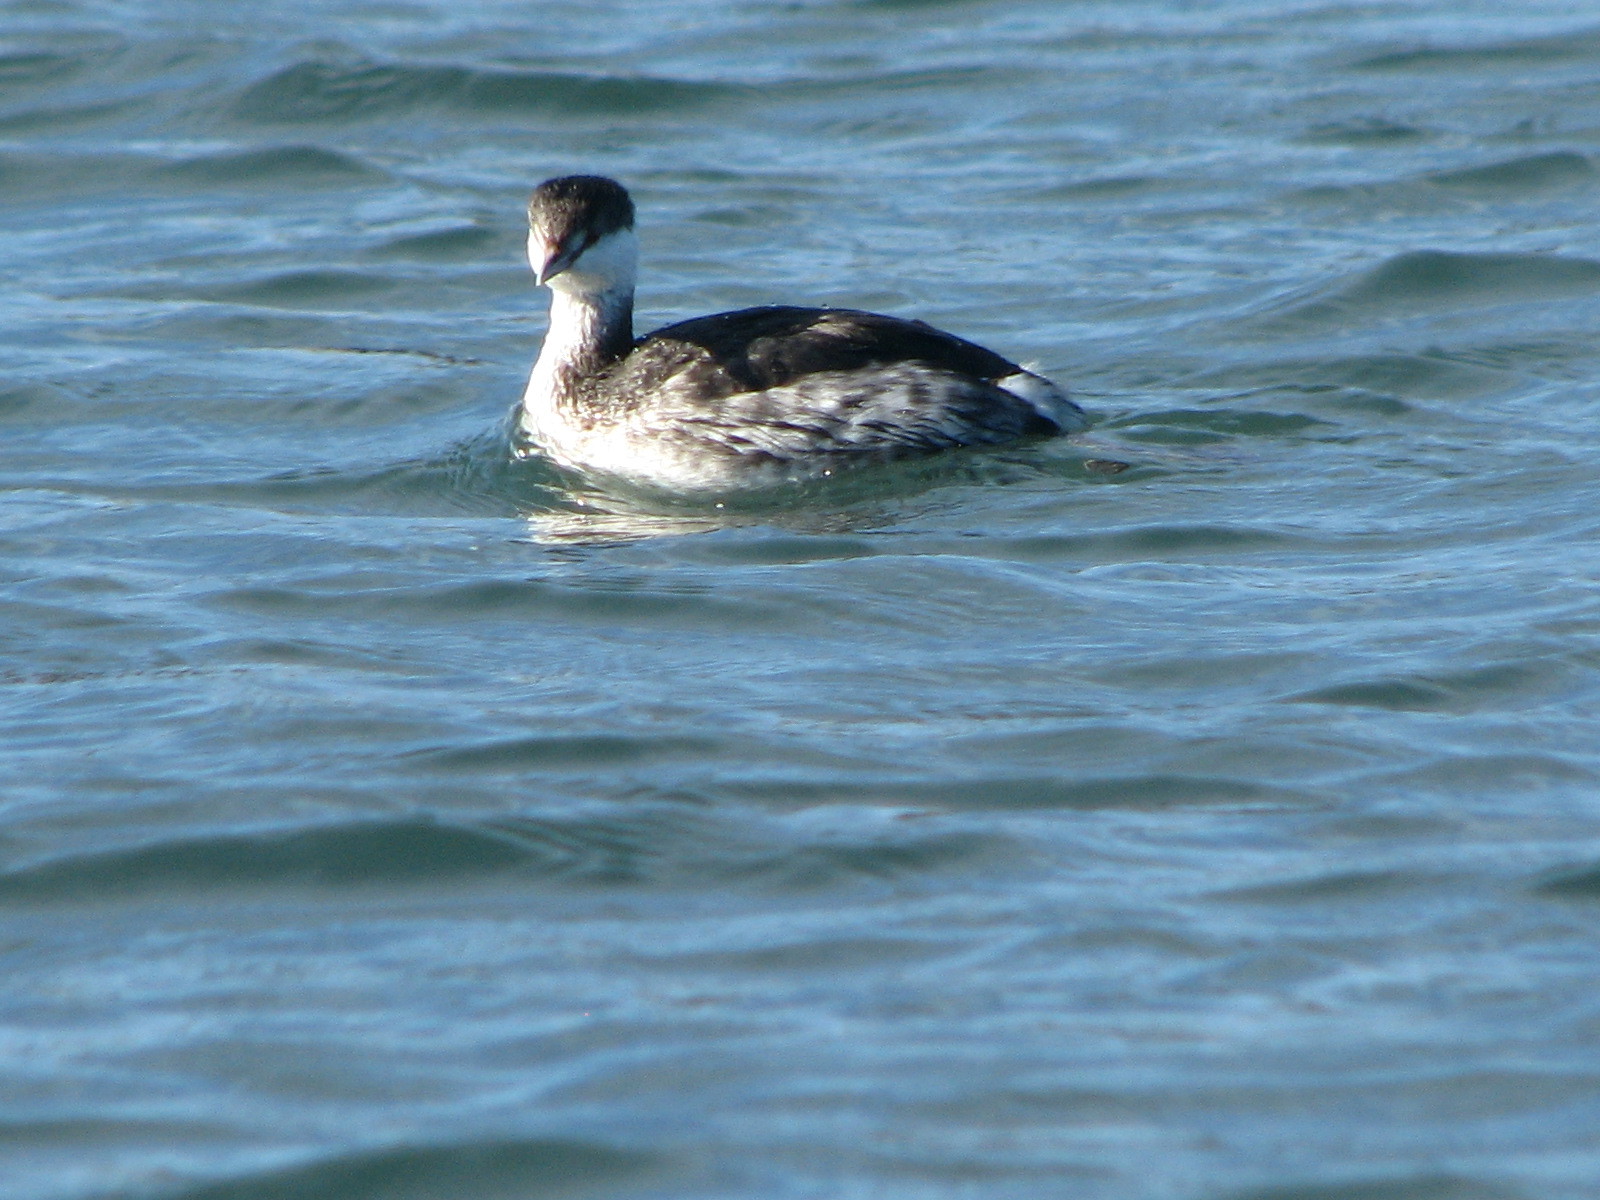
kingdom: Animalia
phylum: Chordata
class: Aves
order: Podicipediformes
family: Podicipedidae
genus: Podiceps
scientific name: Podiceps auritus
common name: Horned grebe
